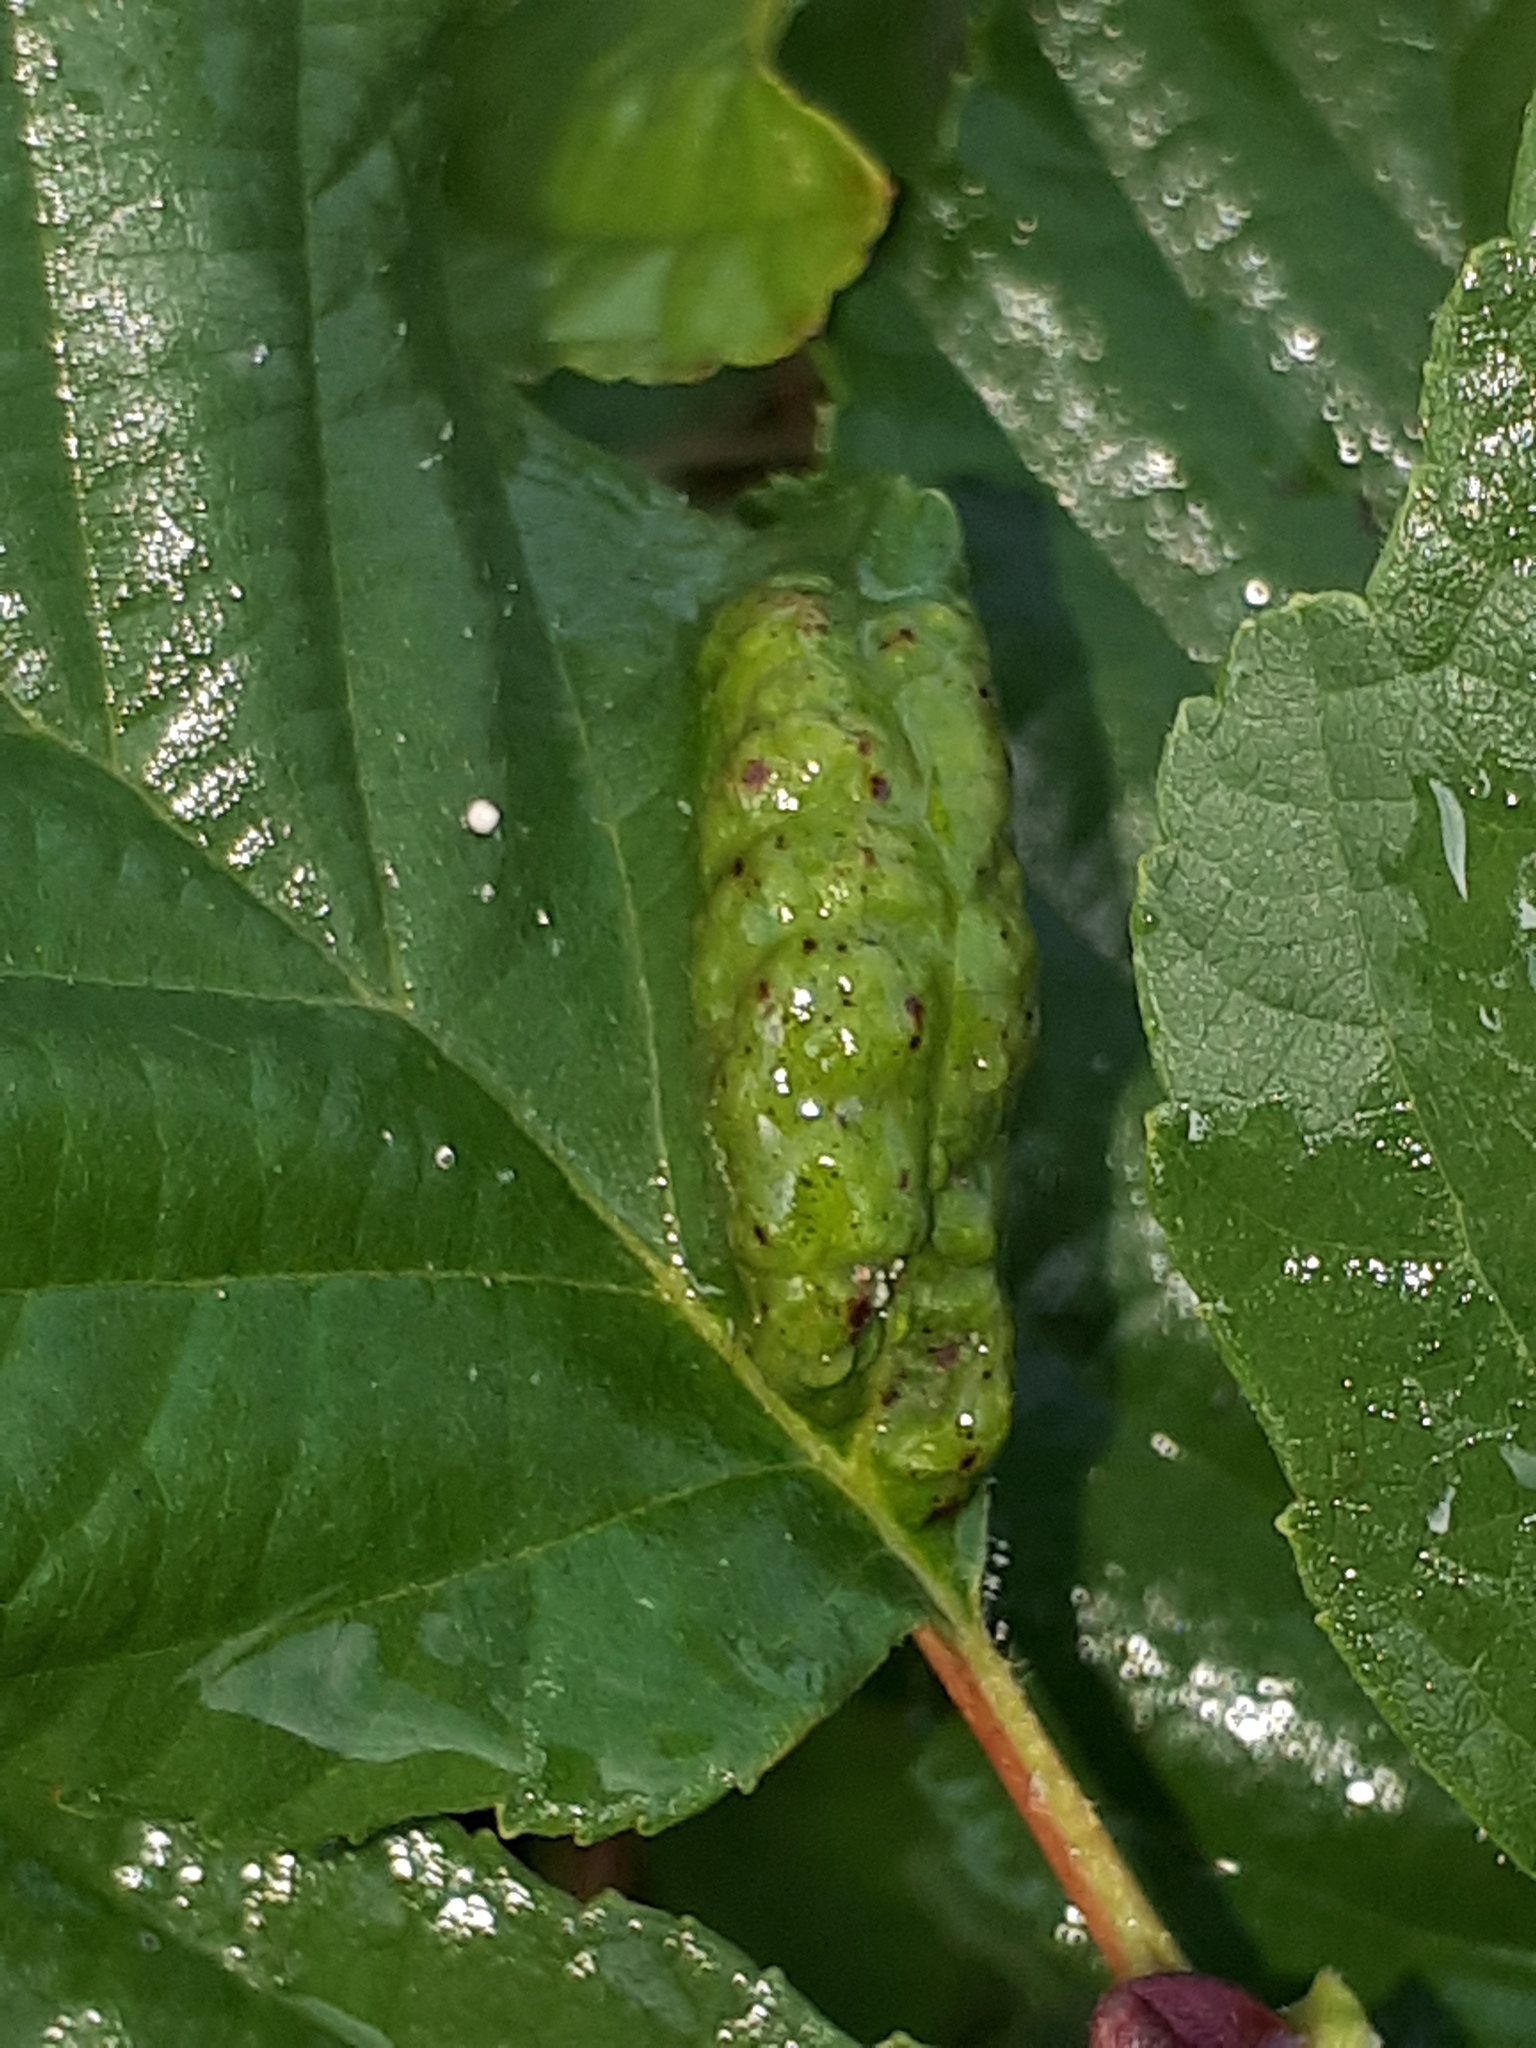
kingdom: Fungi
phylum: Ascomycota
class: Taphrinomycetes
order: Taphrinales
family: Taphrinaceae
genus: Taphrina
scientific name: Taphrina tosquinetii
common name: Alder wrinkle
